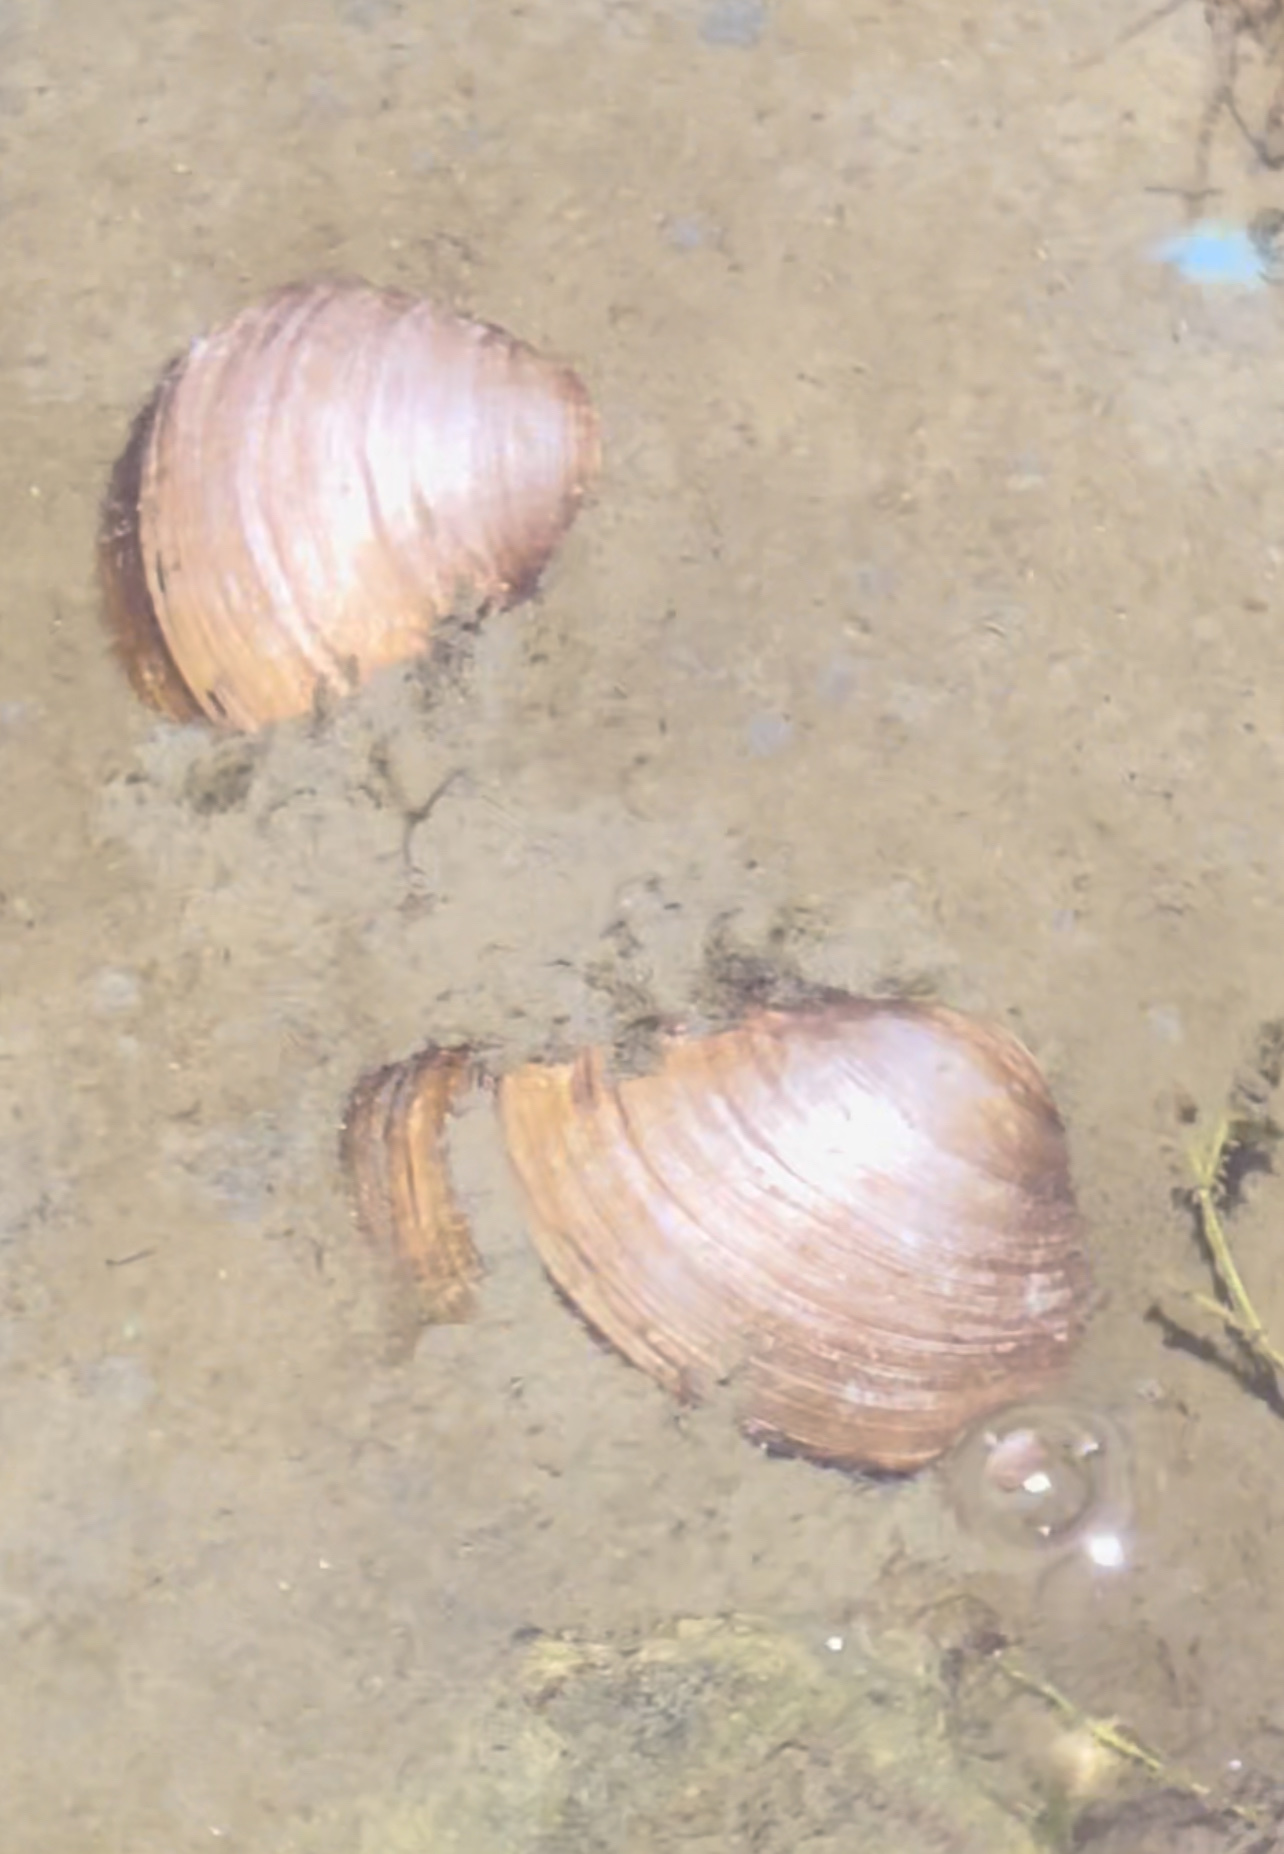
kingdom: Animalia
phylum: Mollusca
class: Bivalvia
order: Unionida
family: Unionidae
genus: Pyganodon
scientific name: Pyganodon grandis
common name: Giant floater
